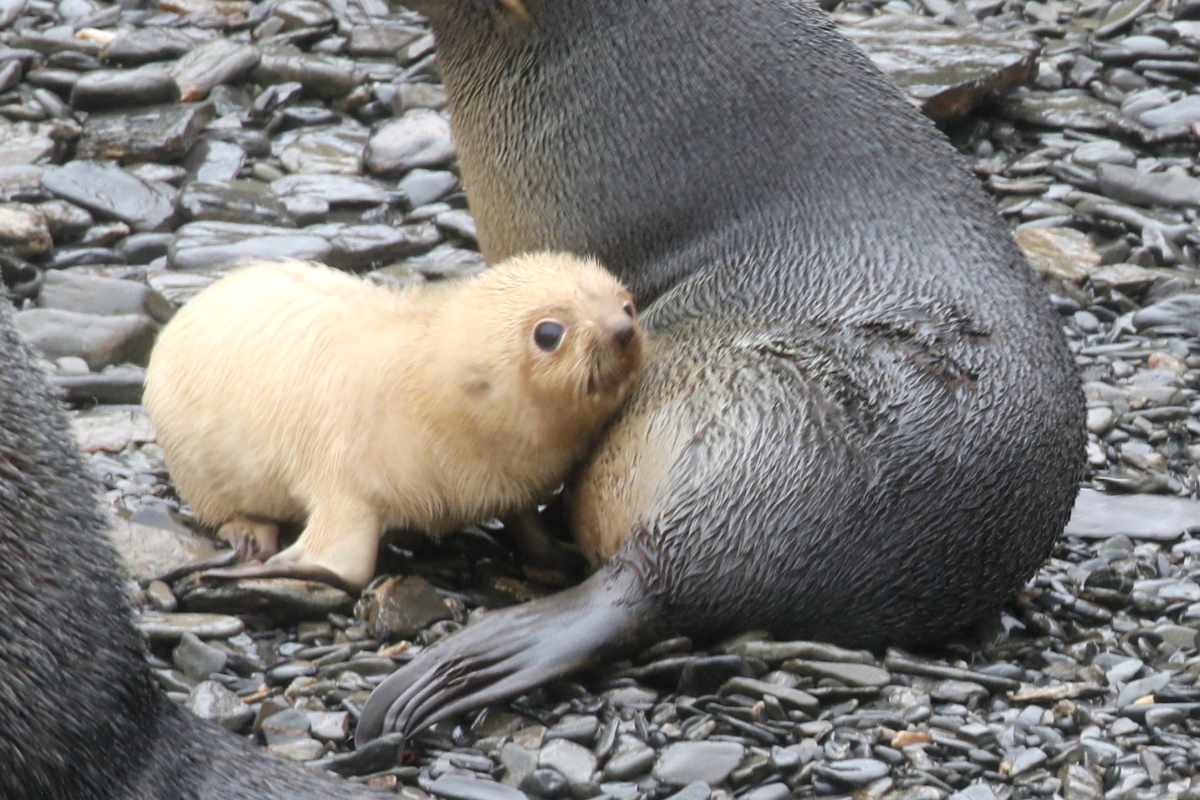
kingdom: Animalia
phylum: Chordata
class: Mammalia
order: Carnivora
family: Otariidae
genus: Arctocephalus
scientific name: Arctocephalus gazella
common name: Antarctic fur seal
